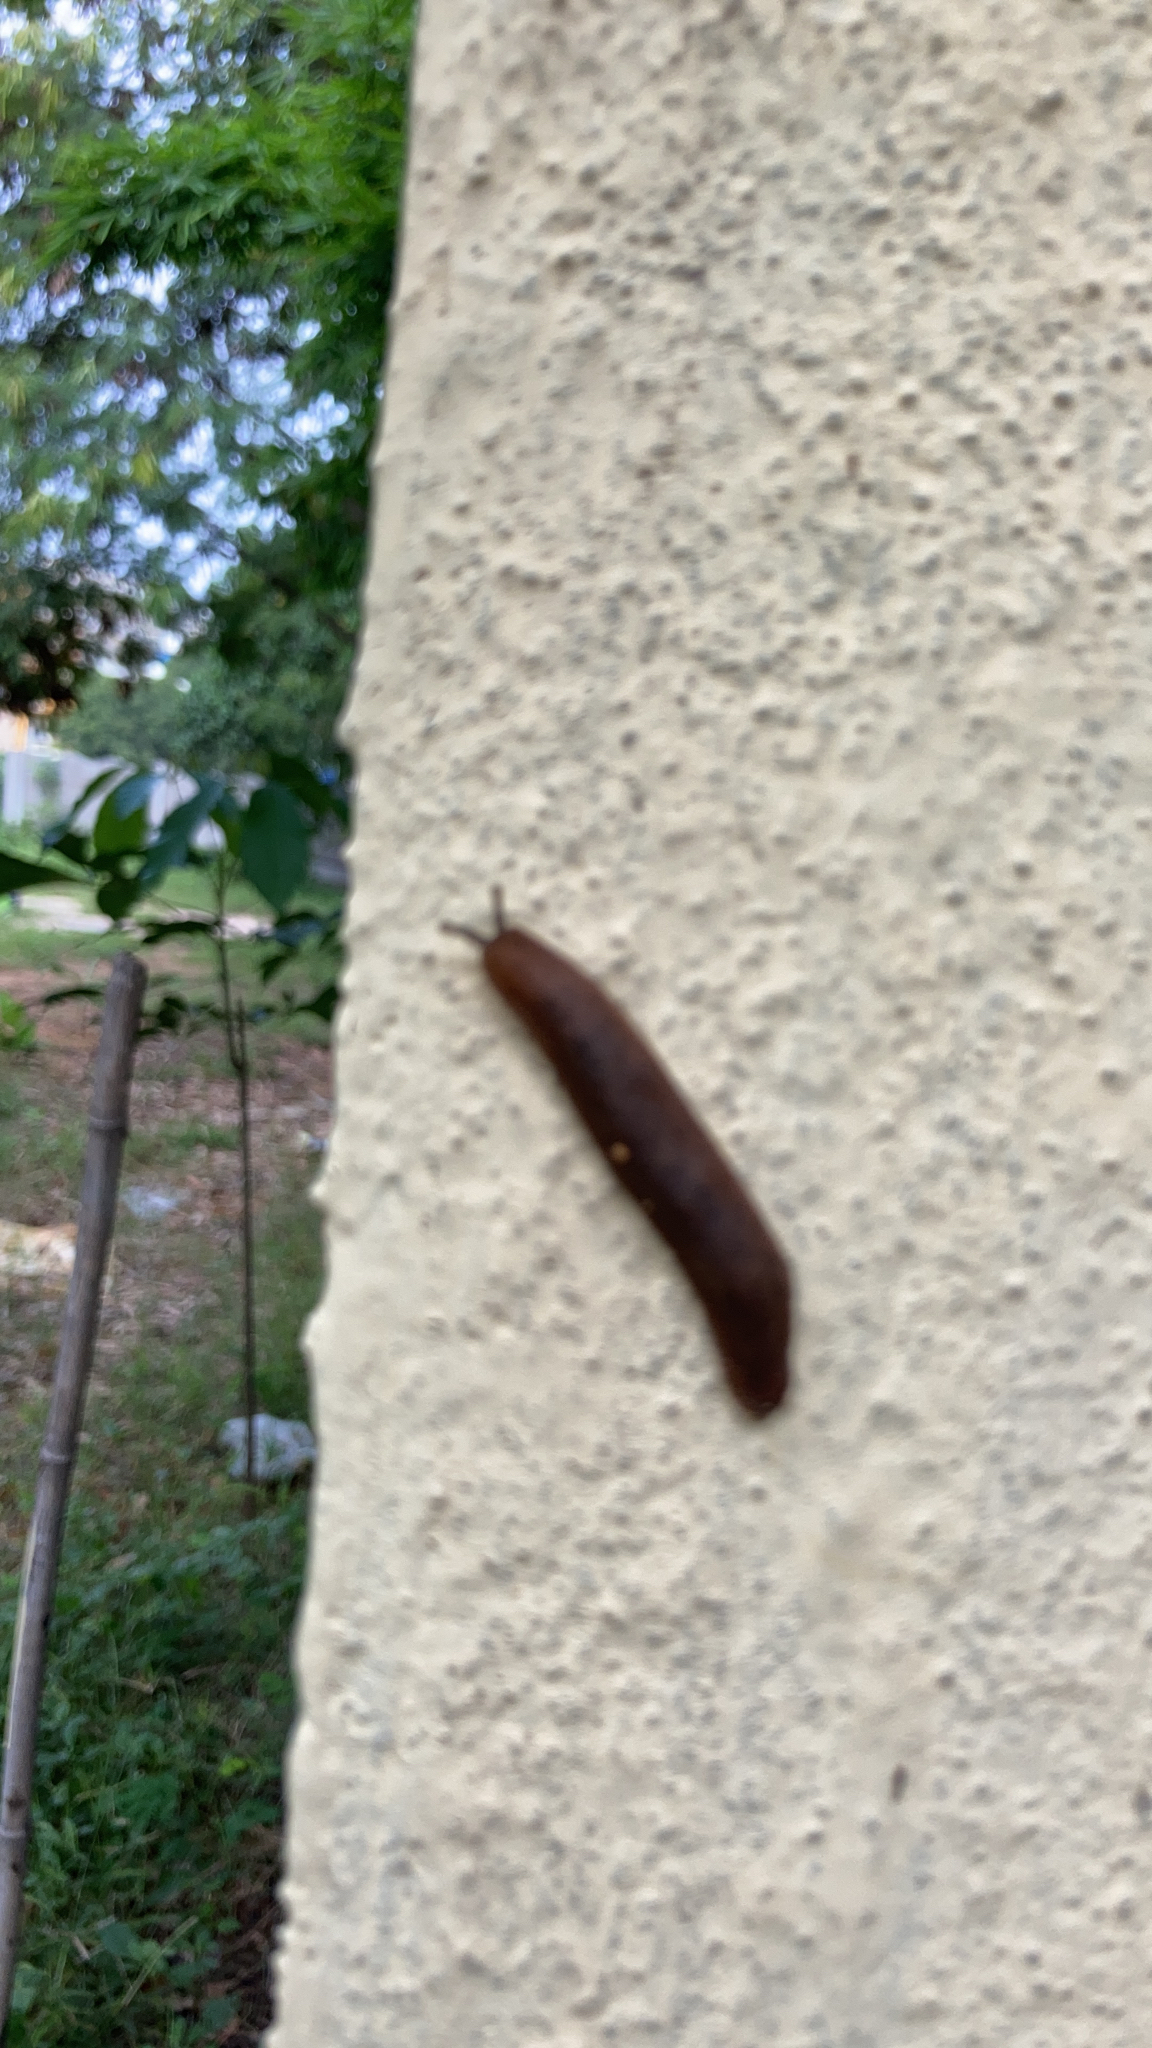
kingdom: Animalia
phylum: Mollusca
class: Gastropoda
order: Systellommatophora
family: Veronicellidae
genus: Laevicaulis
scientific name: Laevicaulis alte
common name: Tropical leatherleaf
